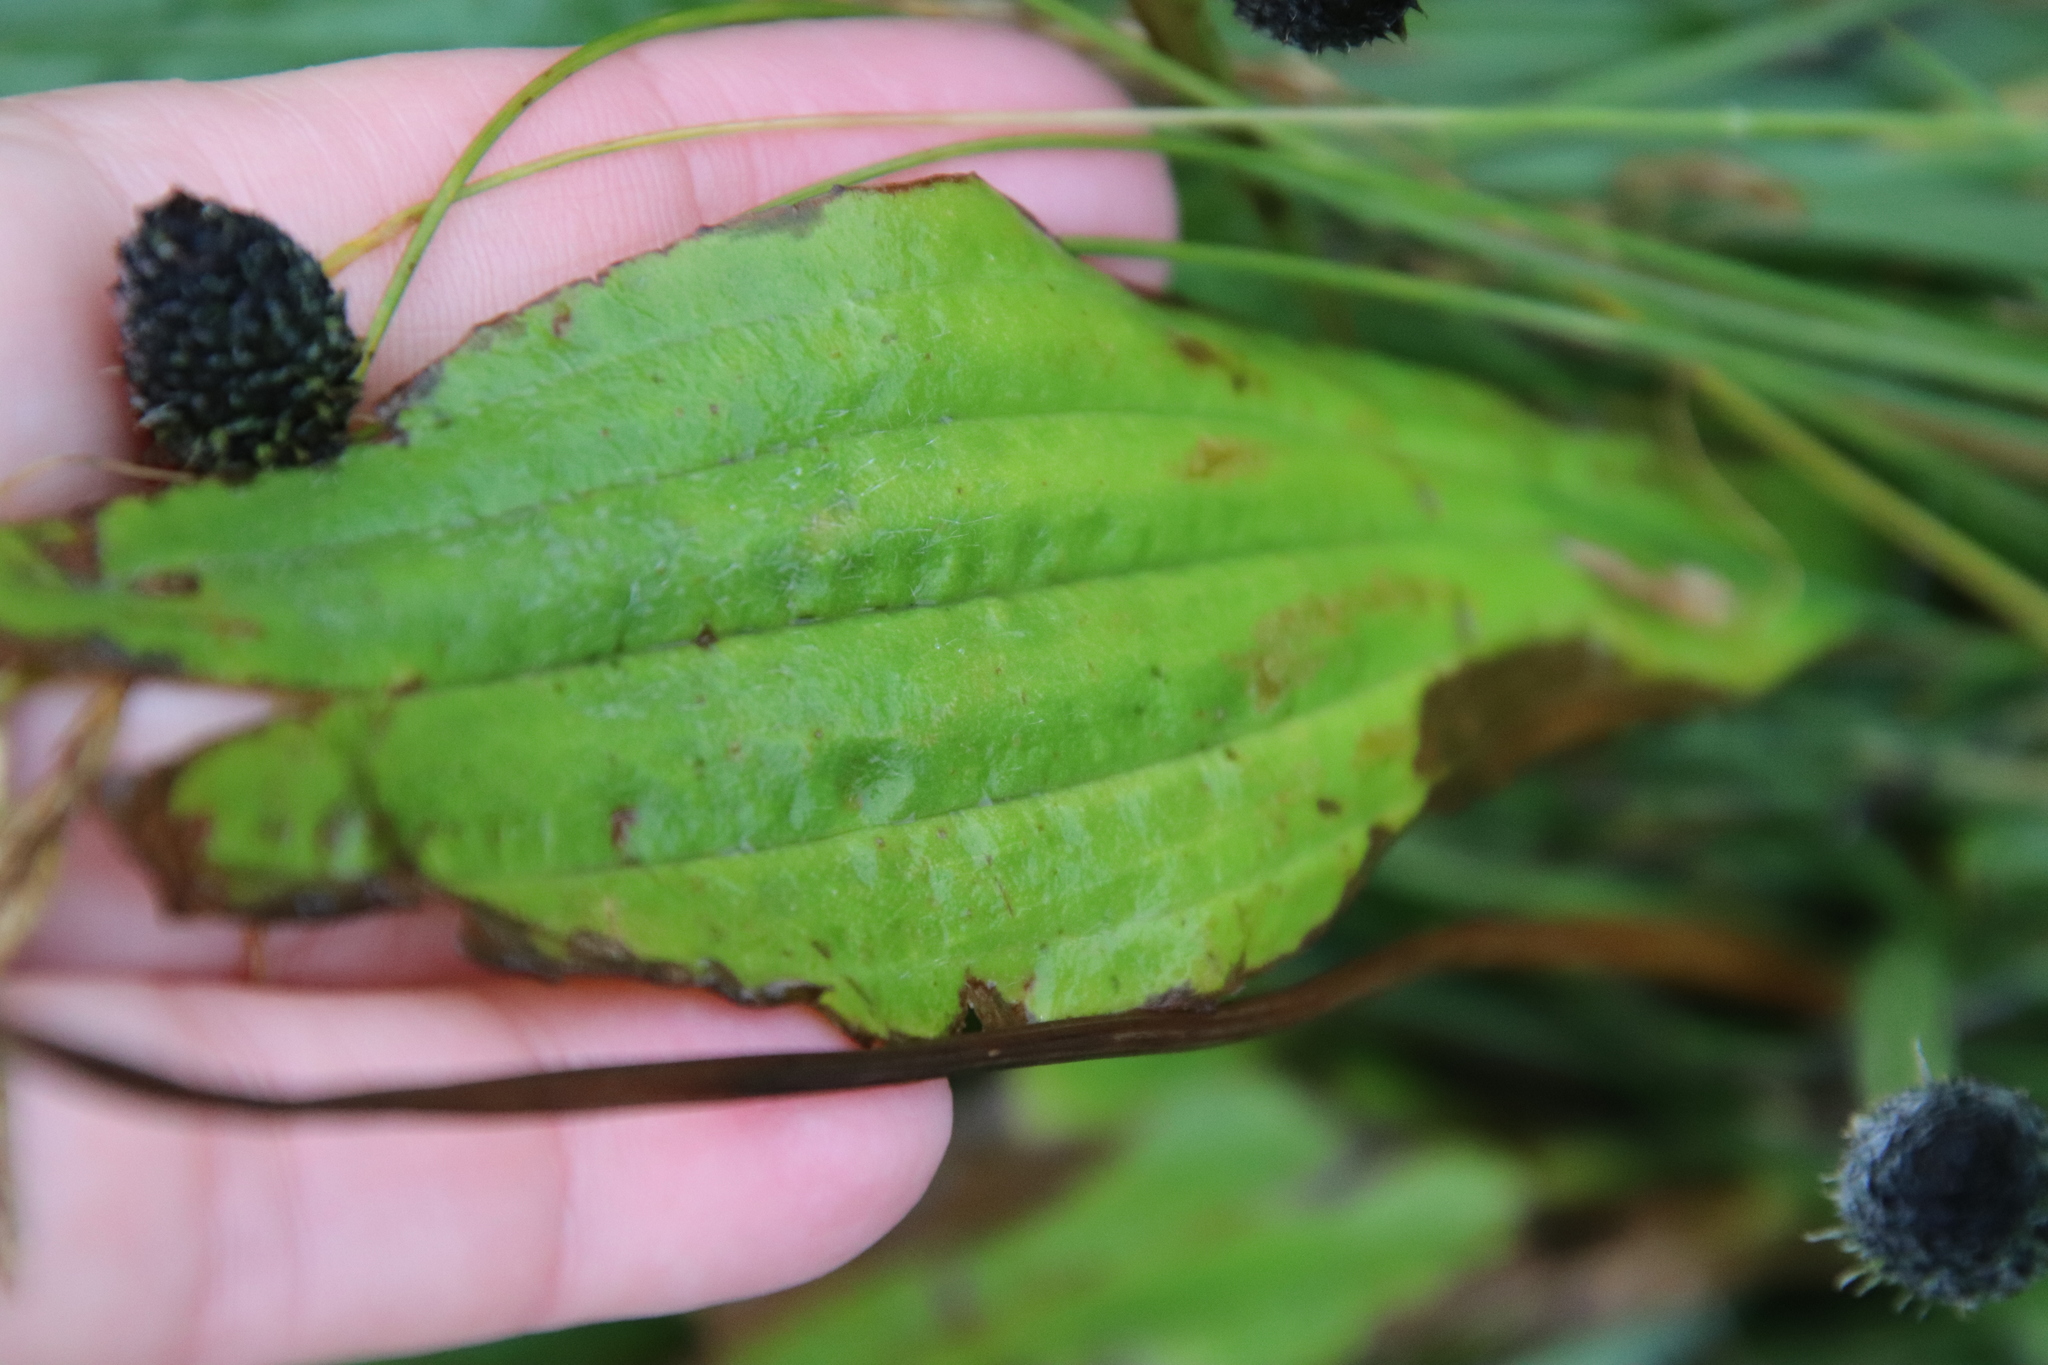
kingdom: Plantae
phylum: Tracheophyta
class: Magnoliopsida
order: Lamiales
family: Plantaginaceae
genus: Plantago
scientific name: Plantago lanceolata
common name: Ribwort plantain
